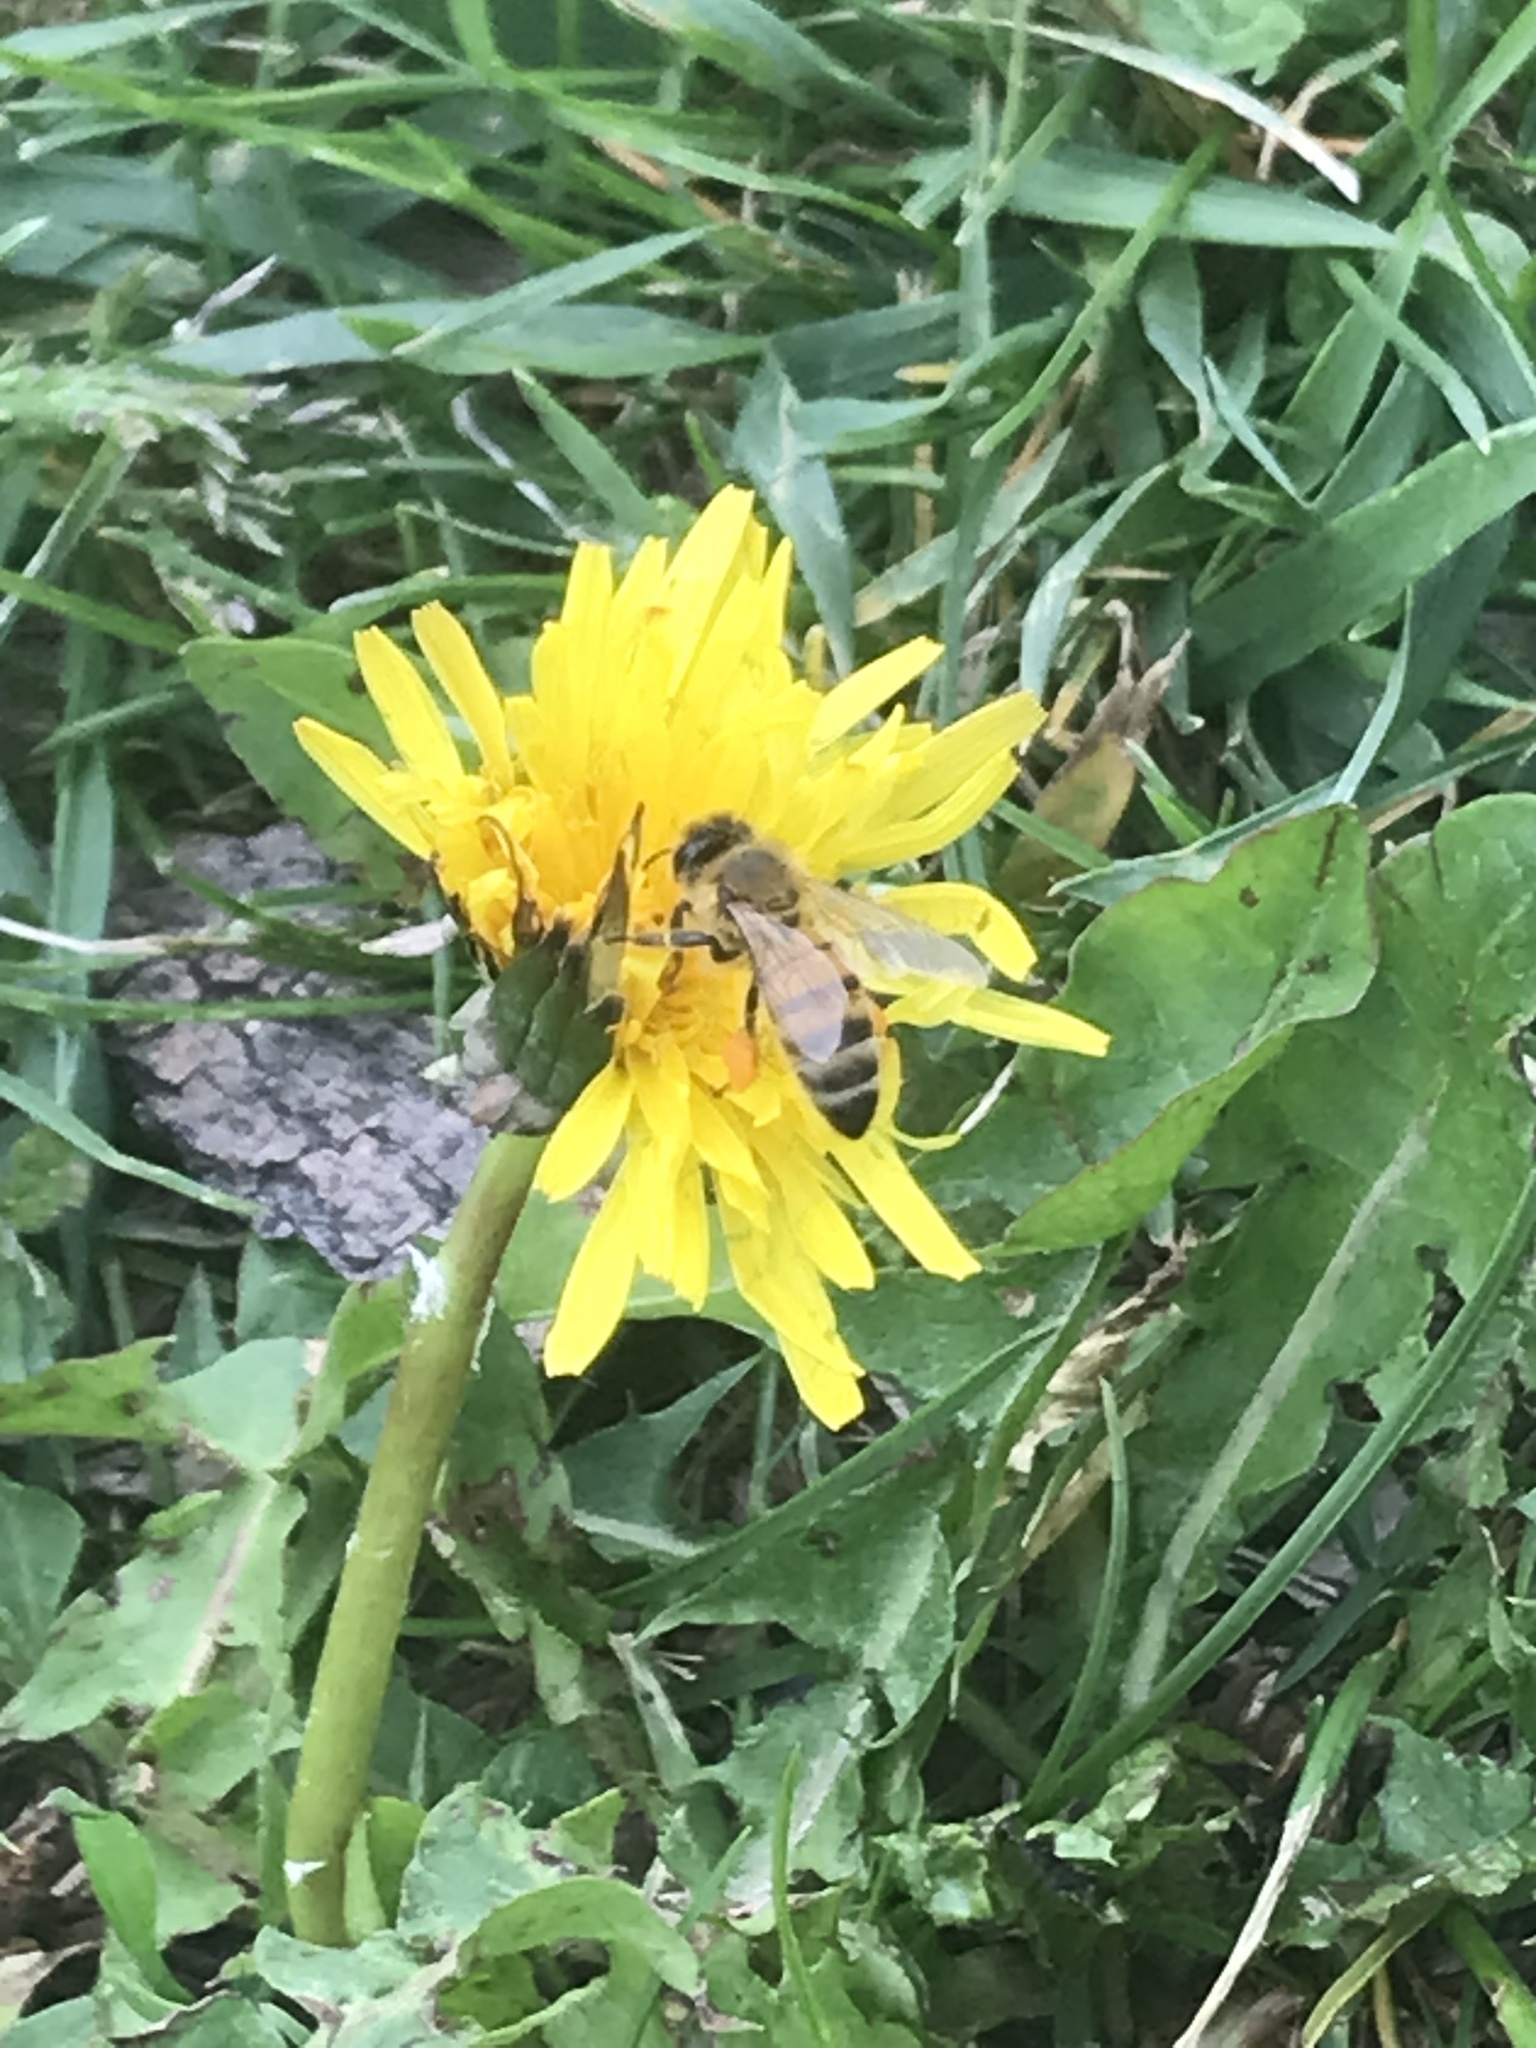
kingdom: Animalia
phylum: Arthropoda
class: Insecta
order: Hymenoptera
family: Apidae
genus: Apis
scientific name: Apis mellifera
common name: Honey bee
